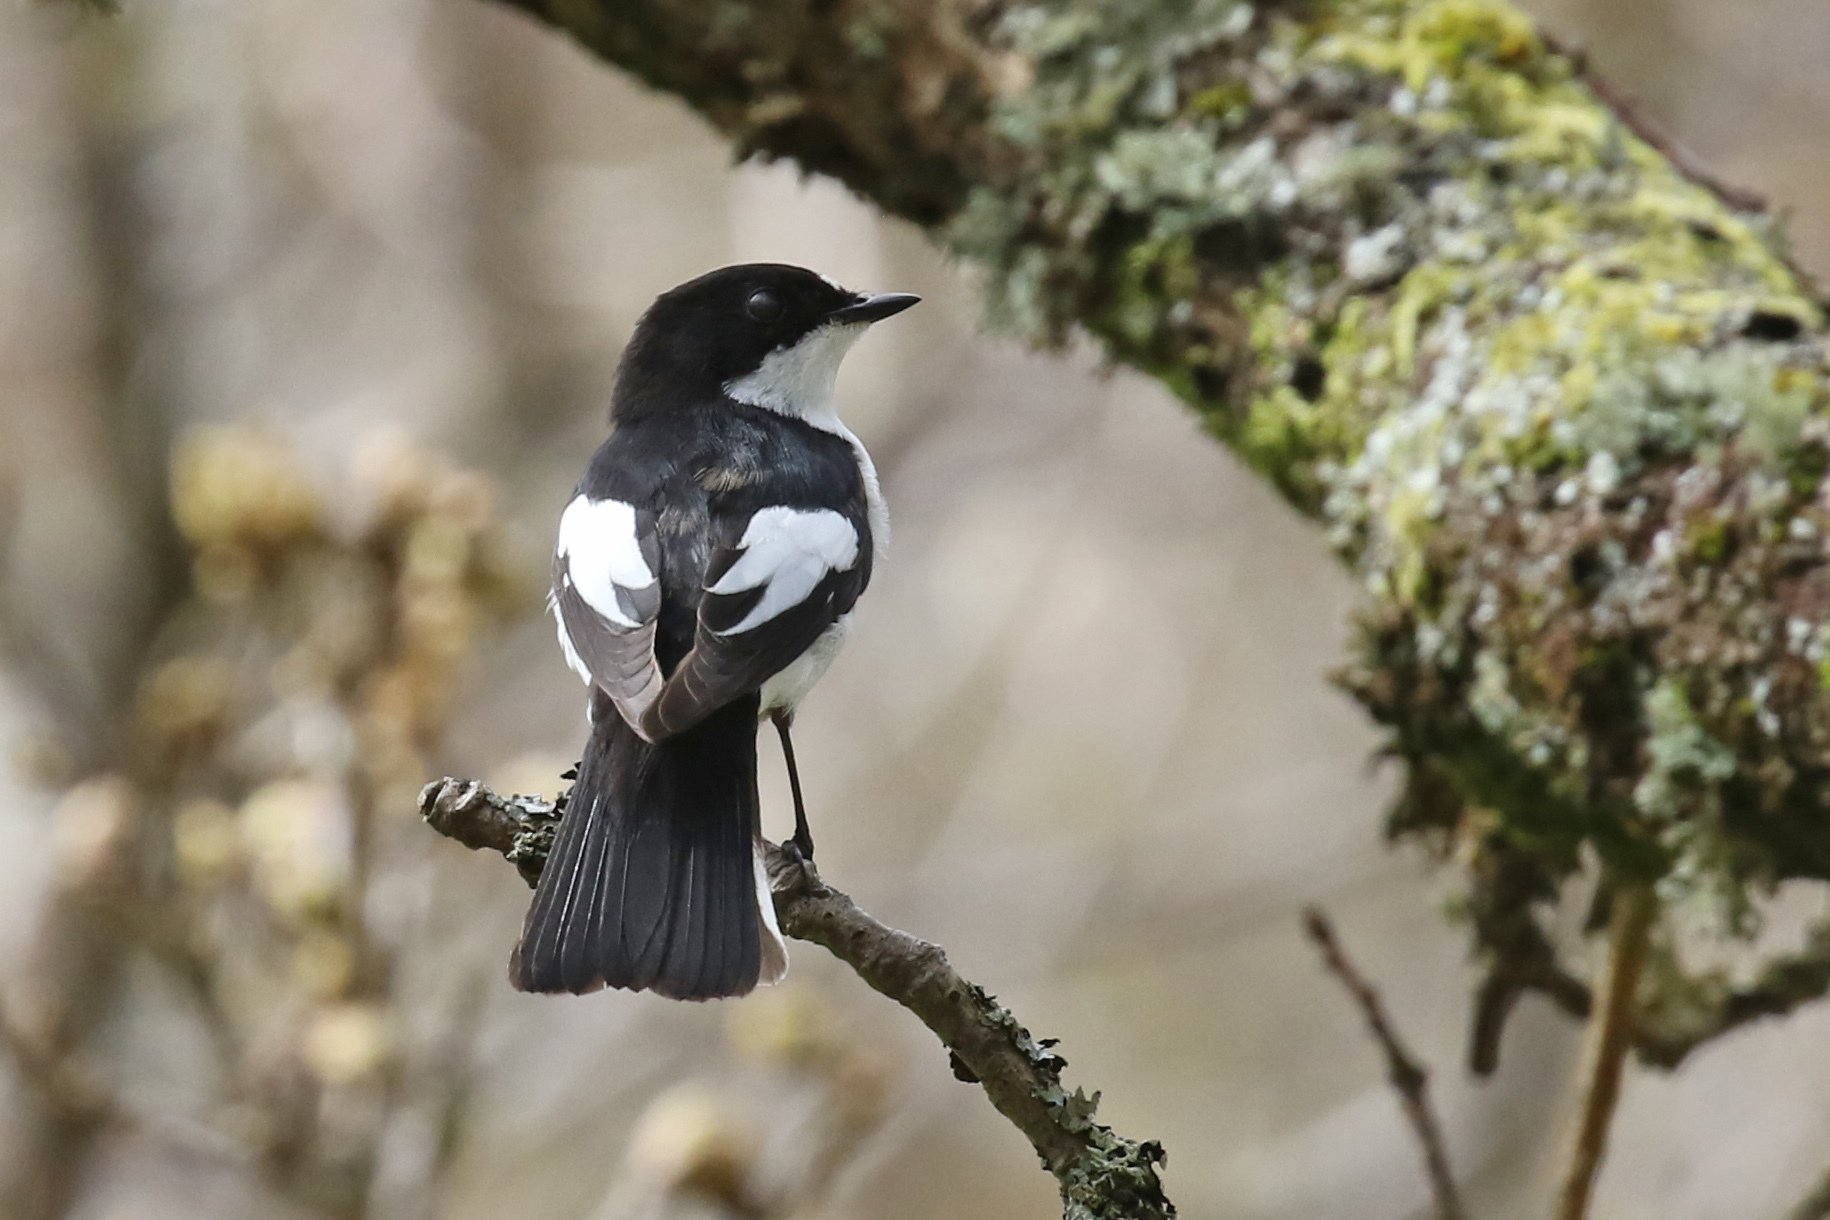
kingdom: Animalia
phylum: Chordata
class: Aves
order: Passeriformes
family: Muscicapidae
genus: Ficedula
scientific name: Ficedula hypoleuca
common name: European pied flycatcher
